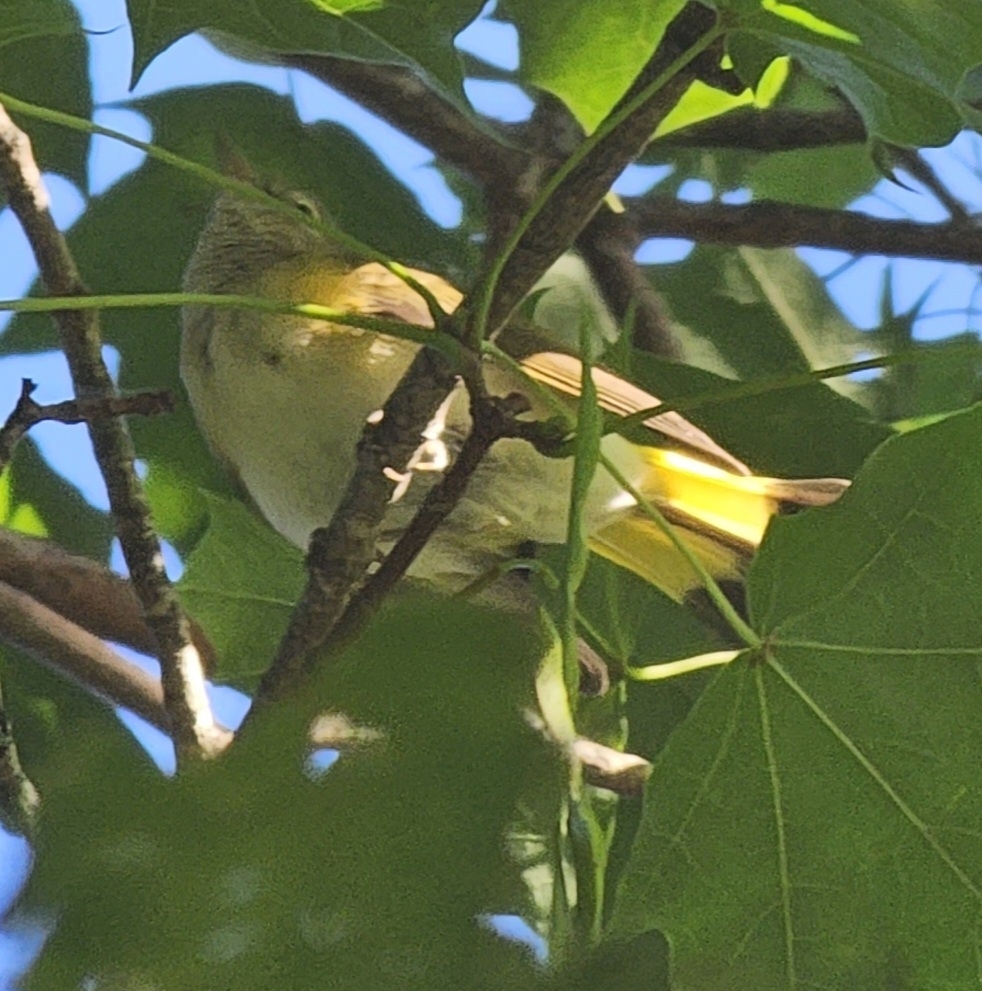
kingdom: Animalia
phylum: Chordata
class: Aves
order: Passeriformes
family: Parulidae
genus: Setophaga
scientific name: Setophaga ruticilla
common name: American redstart
